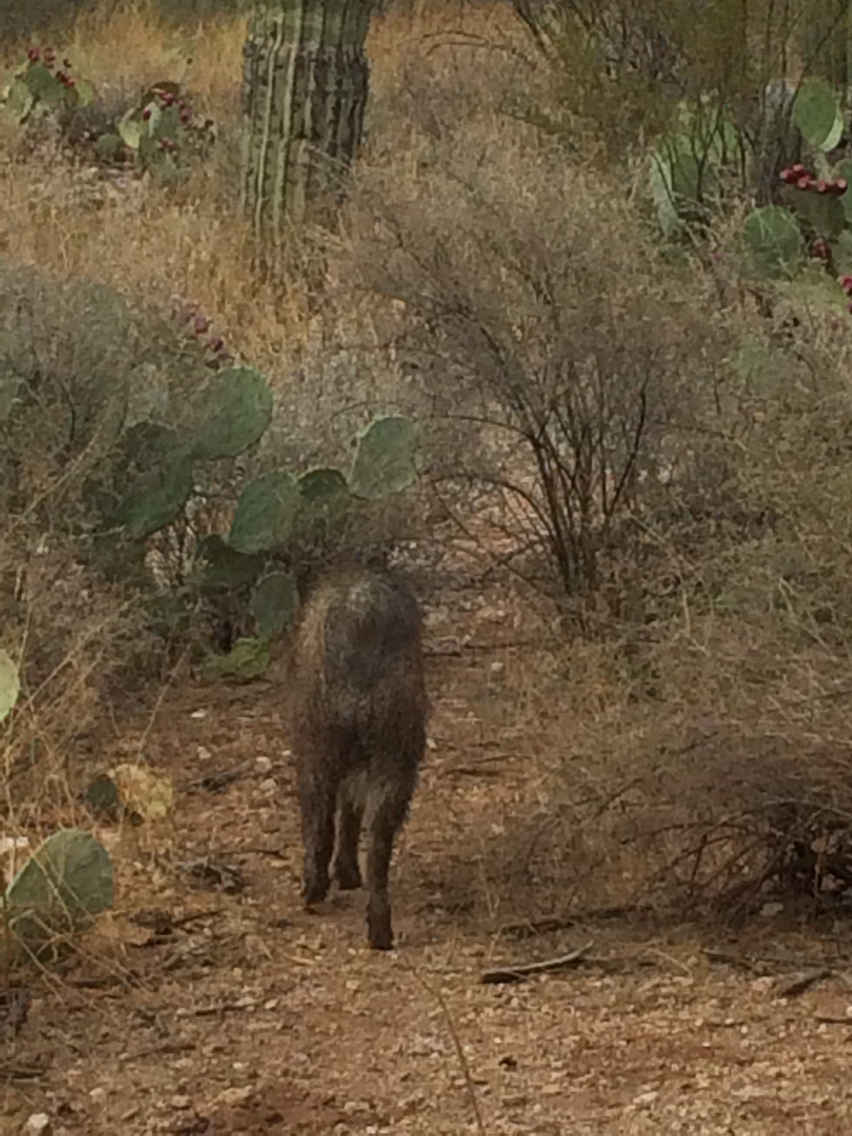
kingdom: Animalia
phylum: Chordata
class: Mammalia
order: Artiodactyla
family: Tayassuidae
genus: Pecari
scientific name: Pecari tajacu
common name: Collared peccary
